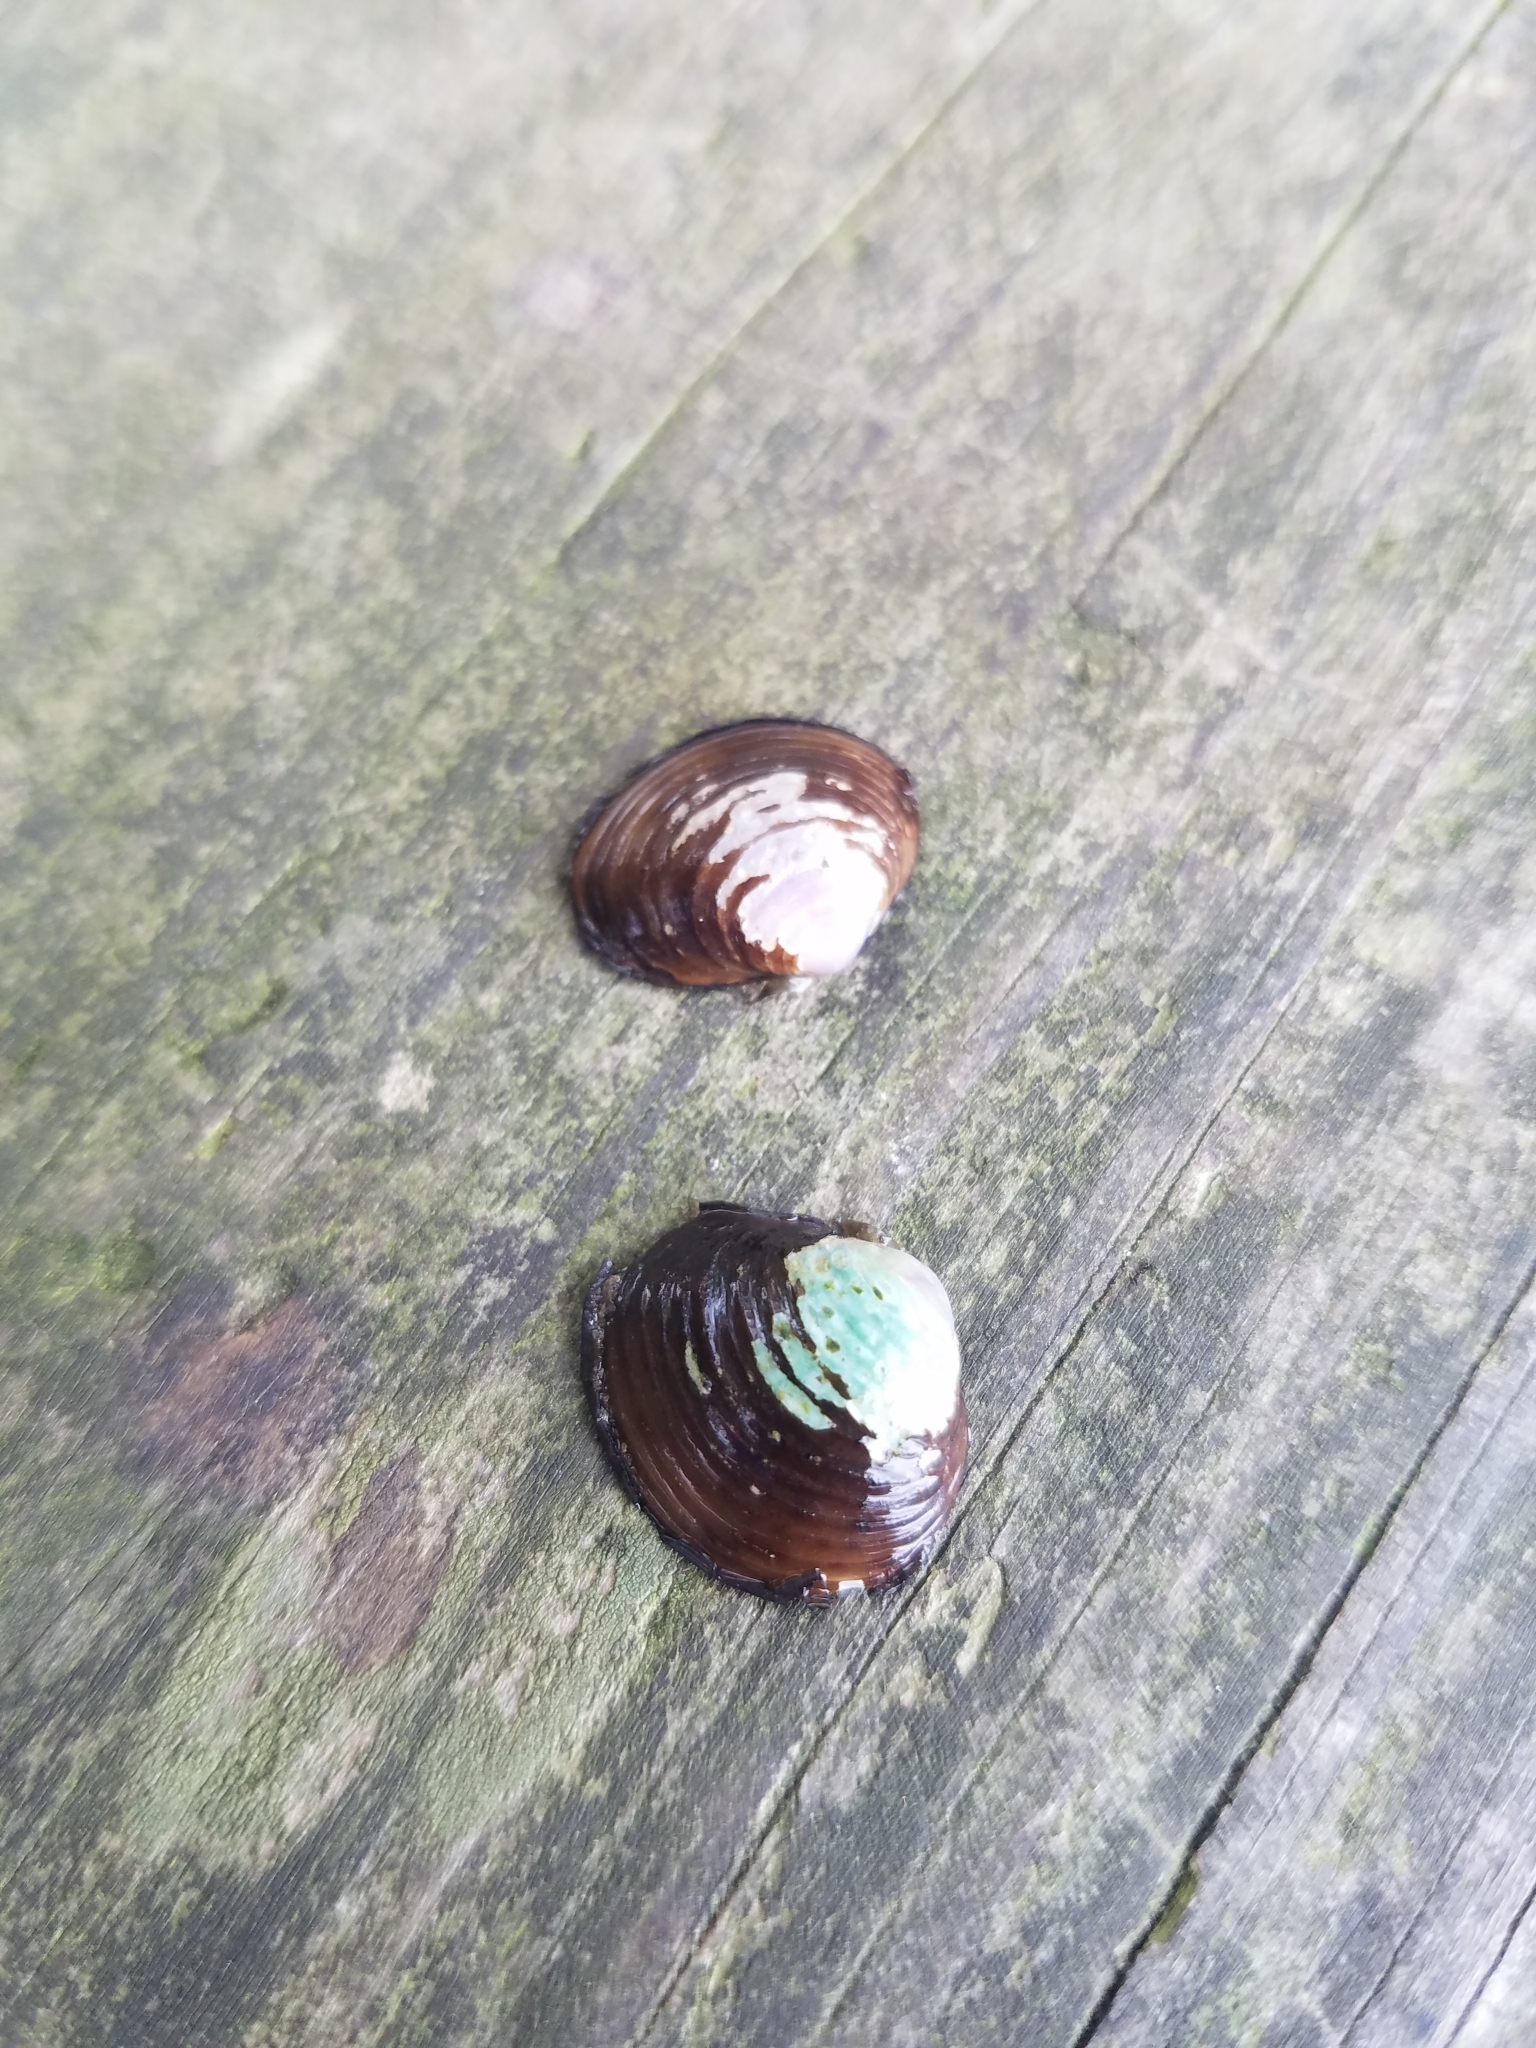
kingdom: Animalia
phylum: Mollusca
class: Bivalvia
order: Venerida
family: Cyrenidae
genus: Corbicula
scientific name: Corbicula fluminea
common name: Asian clam
